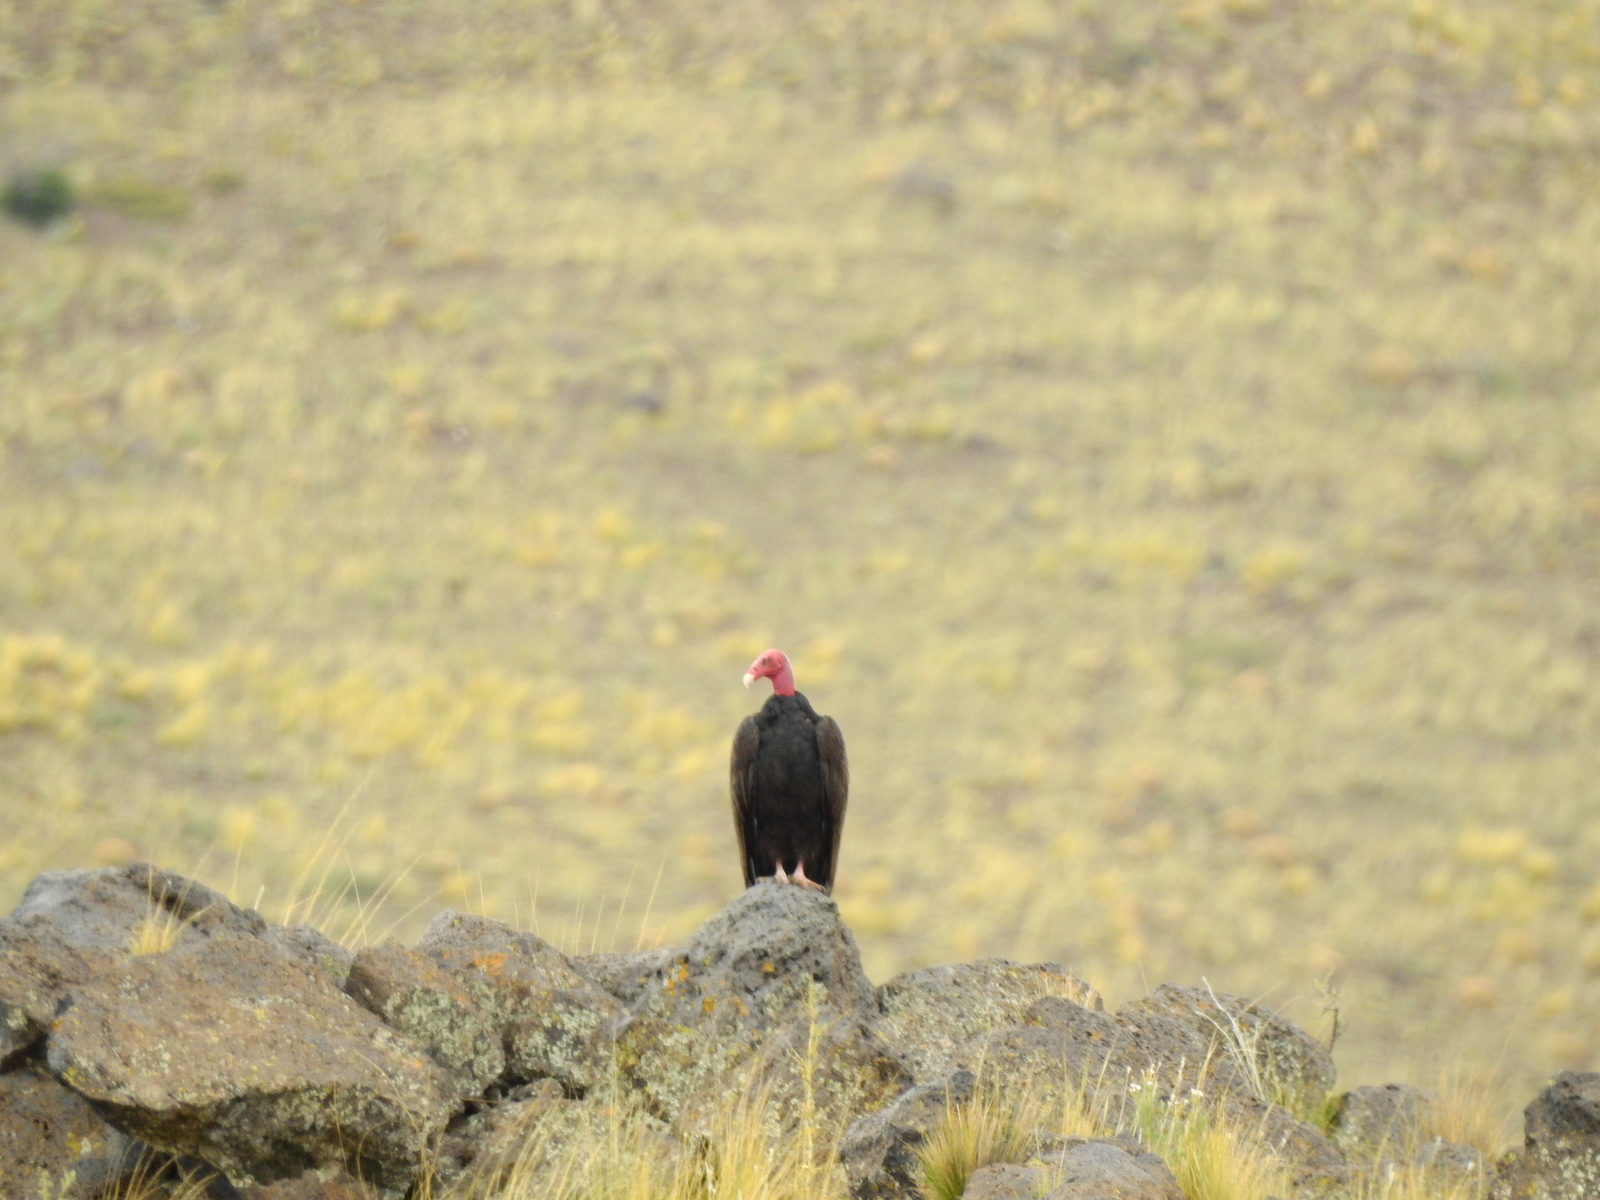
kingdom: Animalia
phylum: Chordata
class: Aves
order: Accipitriformes
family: Cathartidae
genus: Cathartes
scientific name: Cathartes aura
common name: Turkey vulture
